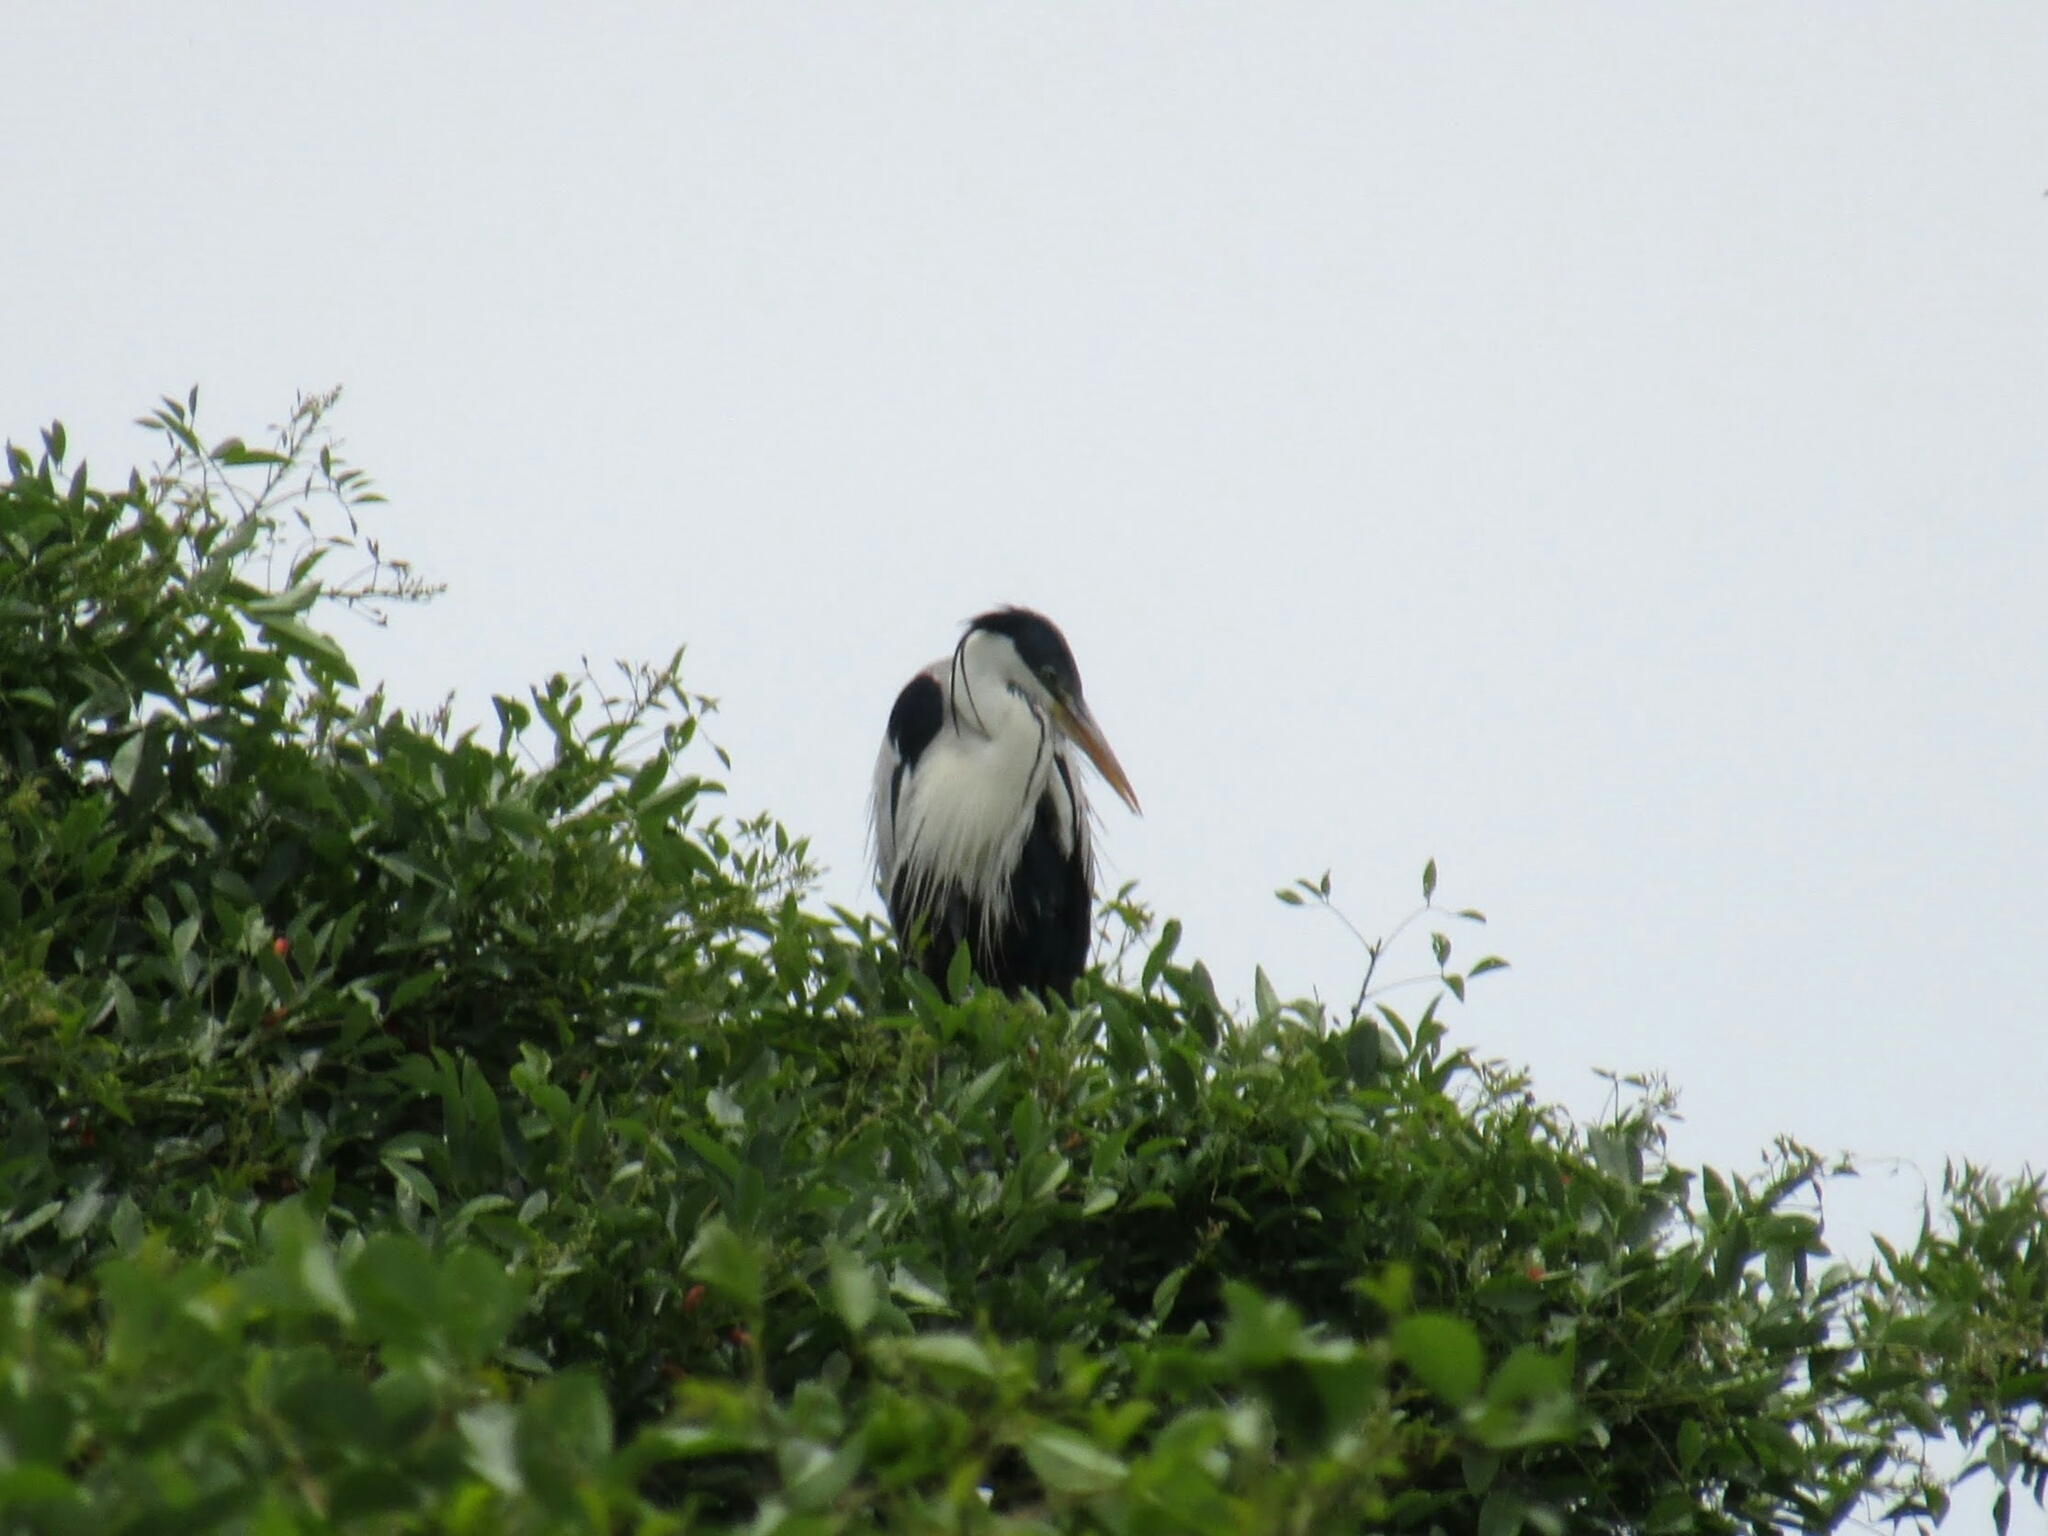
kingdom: Animalia
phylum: Chordata
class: Aves
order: Pelecaniformes
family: Ardeidae
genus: Ardea
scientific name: Ardea cocoi
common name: Cocoi heron
